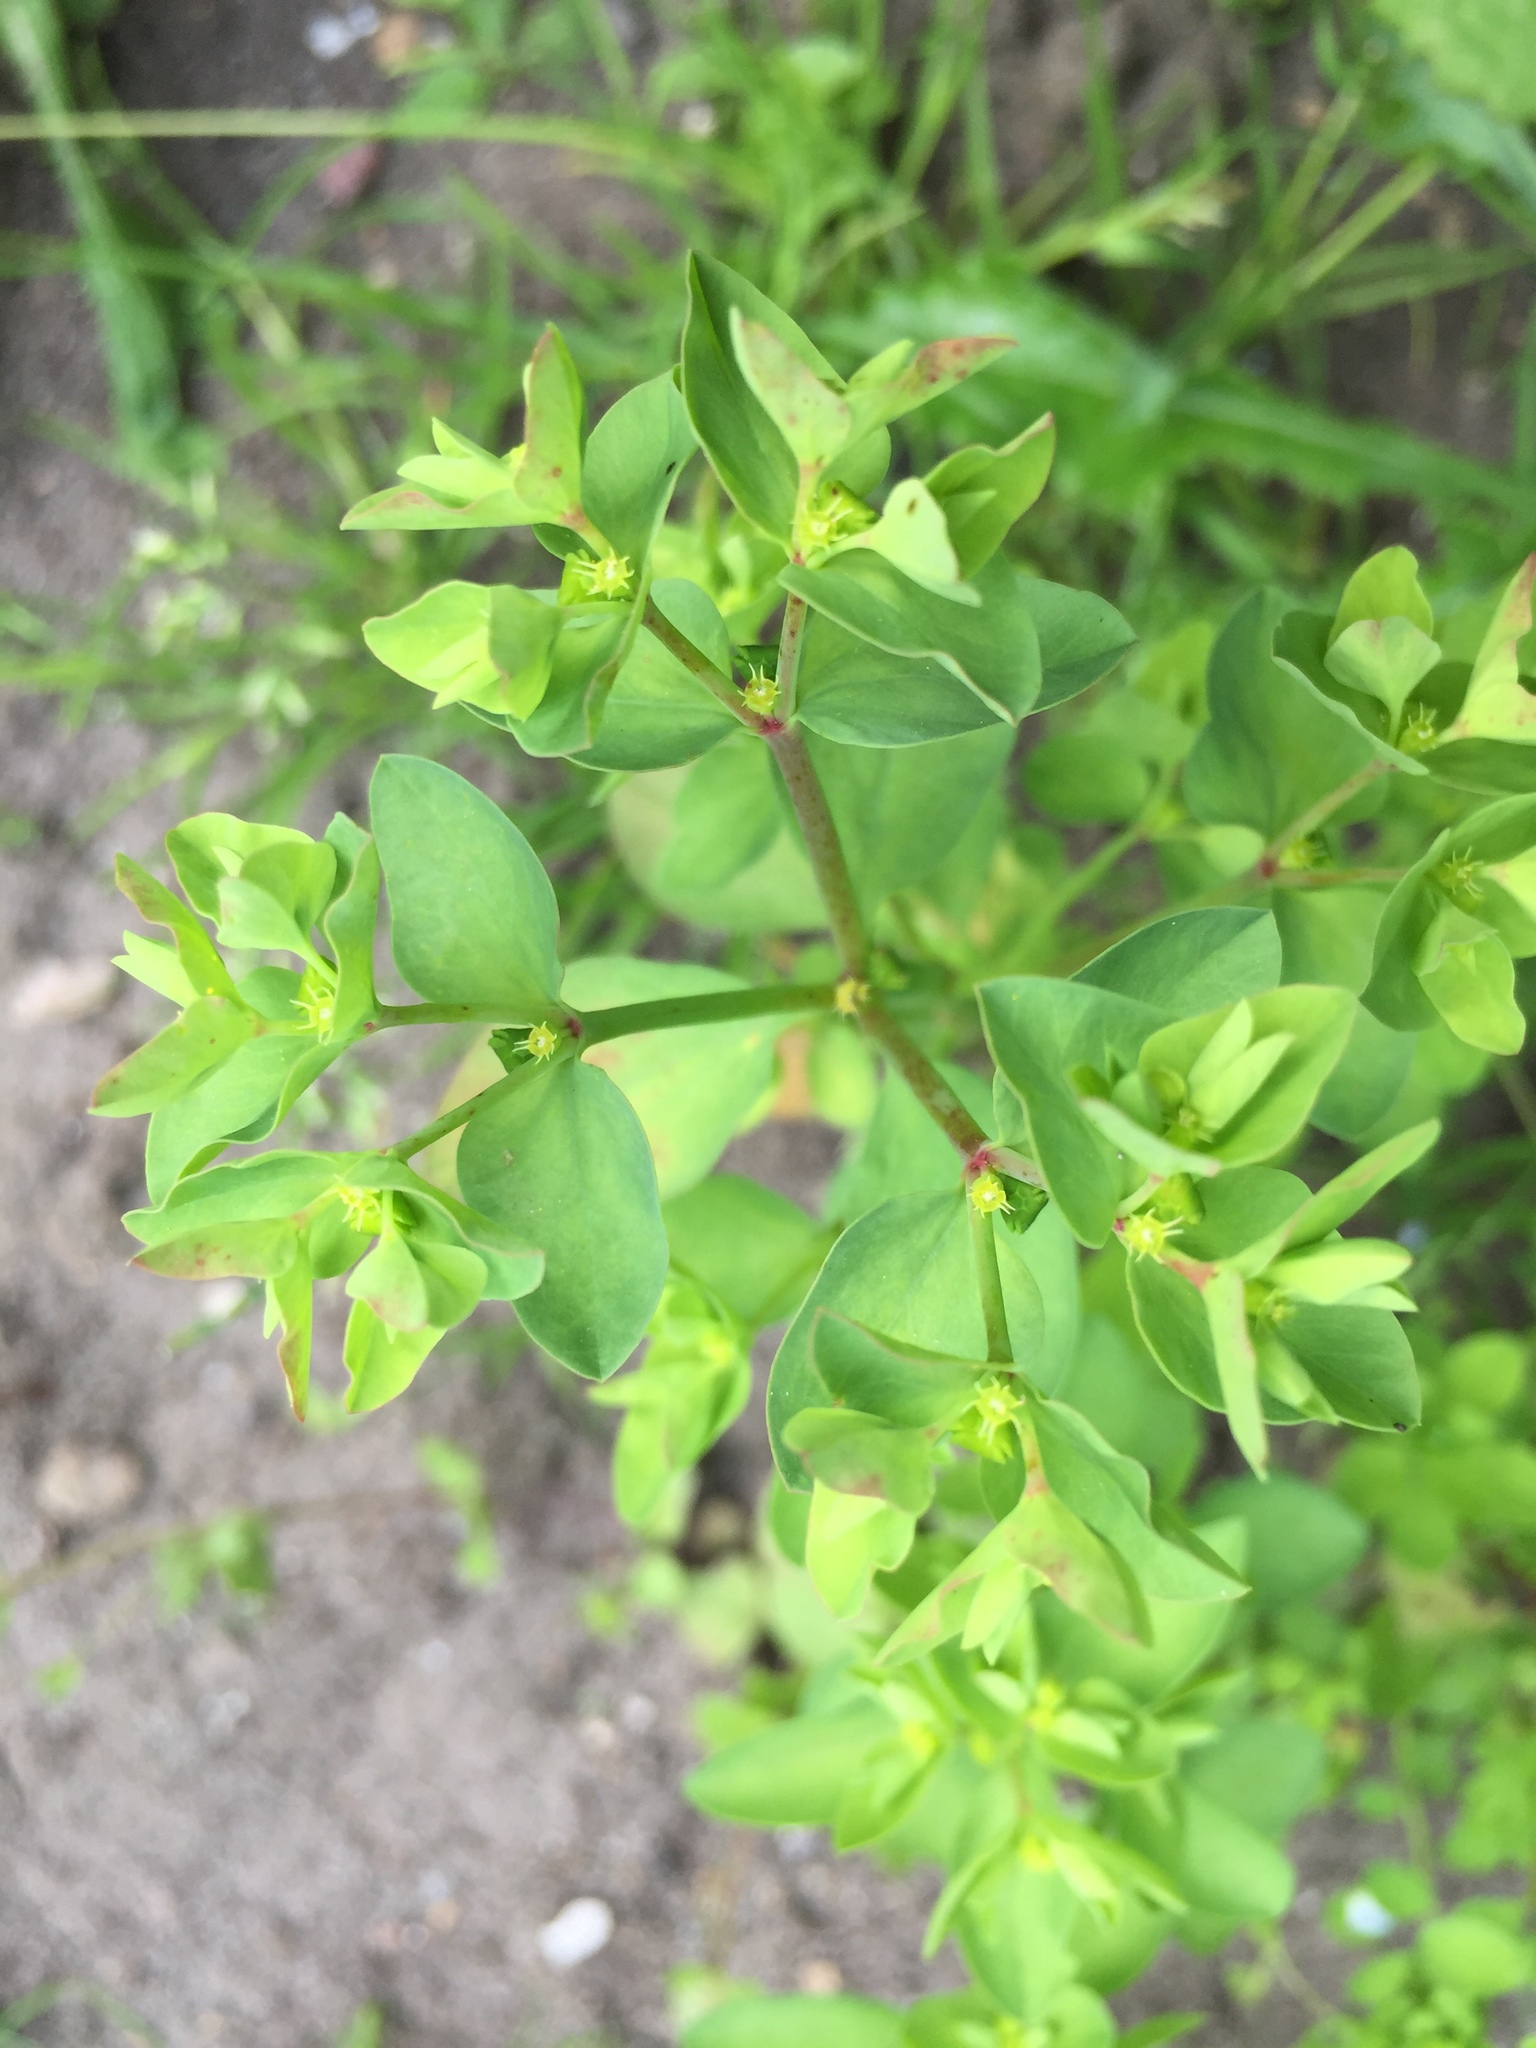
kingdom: Plantae
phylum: Tracheophyta
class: Magnoliopsida
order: Malpighiales
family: Euphorbiaceae
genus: Euphorbia
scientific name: Euphorbia peplus
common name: Petty spurge
